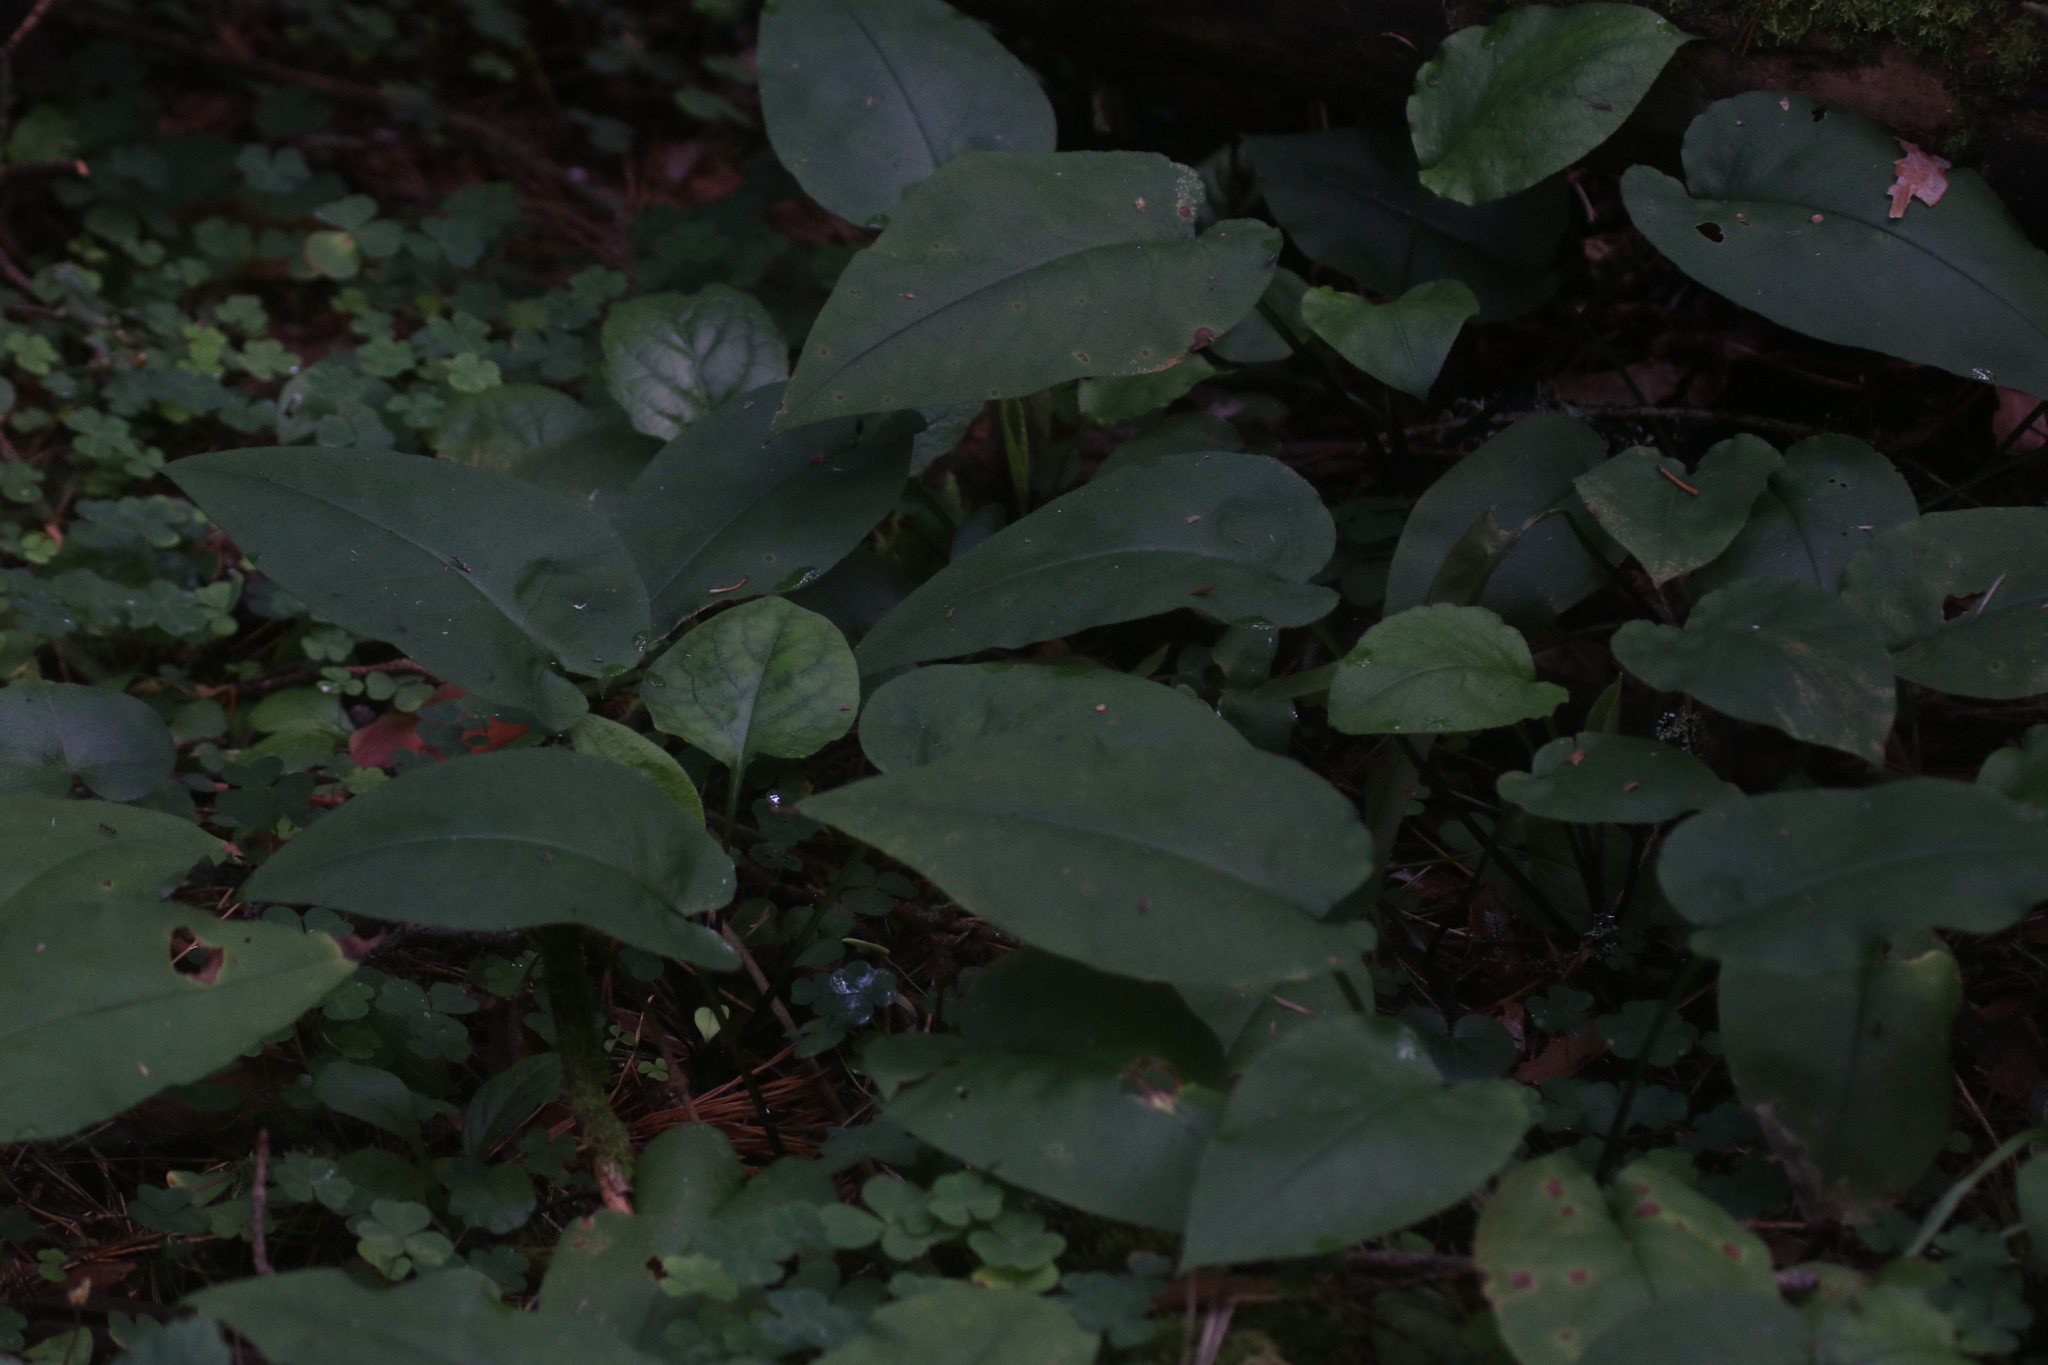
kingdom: Plantae
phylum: Tracheophyta
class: Magnoliopsida
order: Boraginales
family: Boraginaceae
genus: Pulmonaria
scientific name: Pulmonaria obscura
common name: Suffolk lungwort
